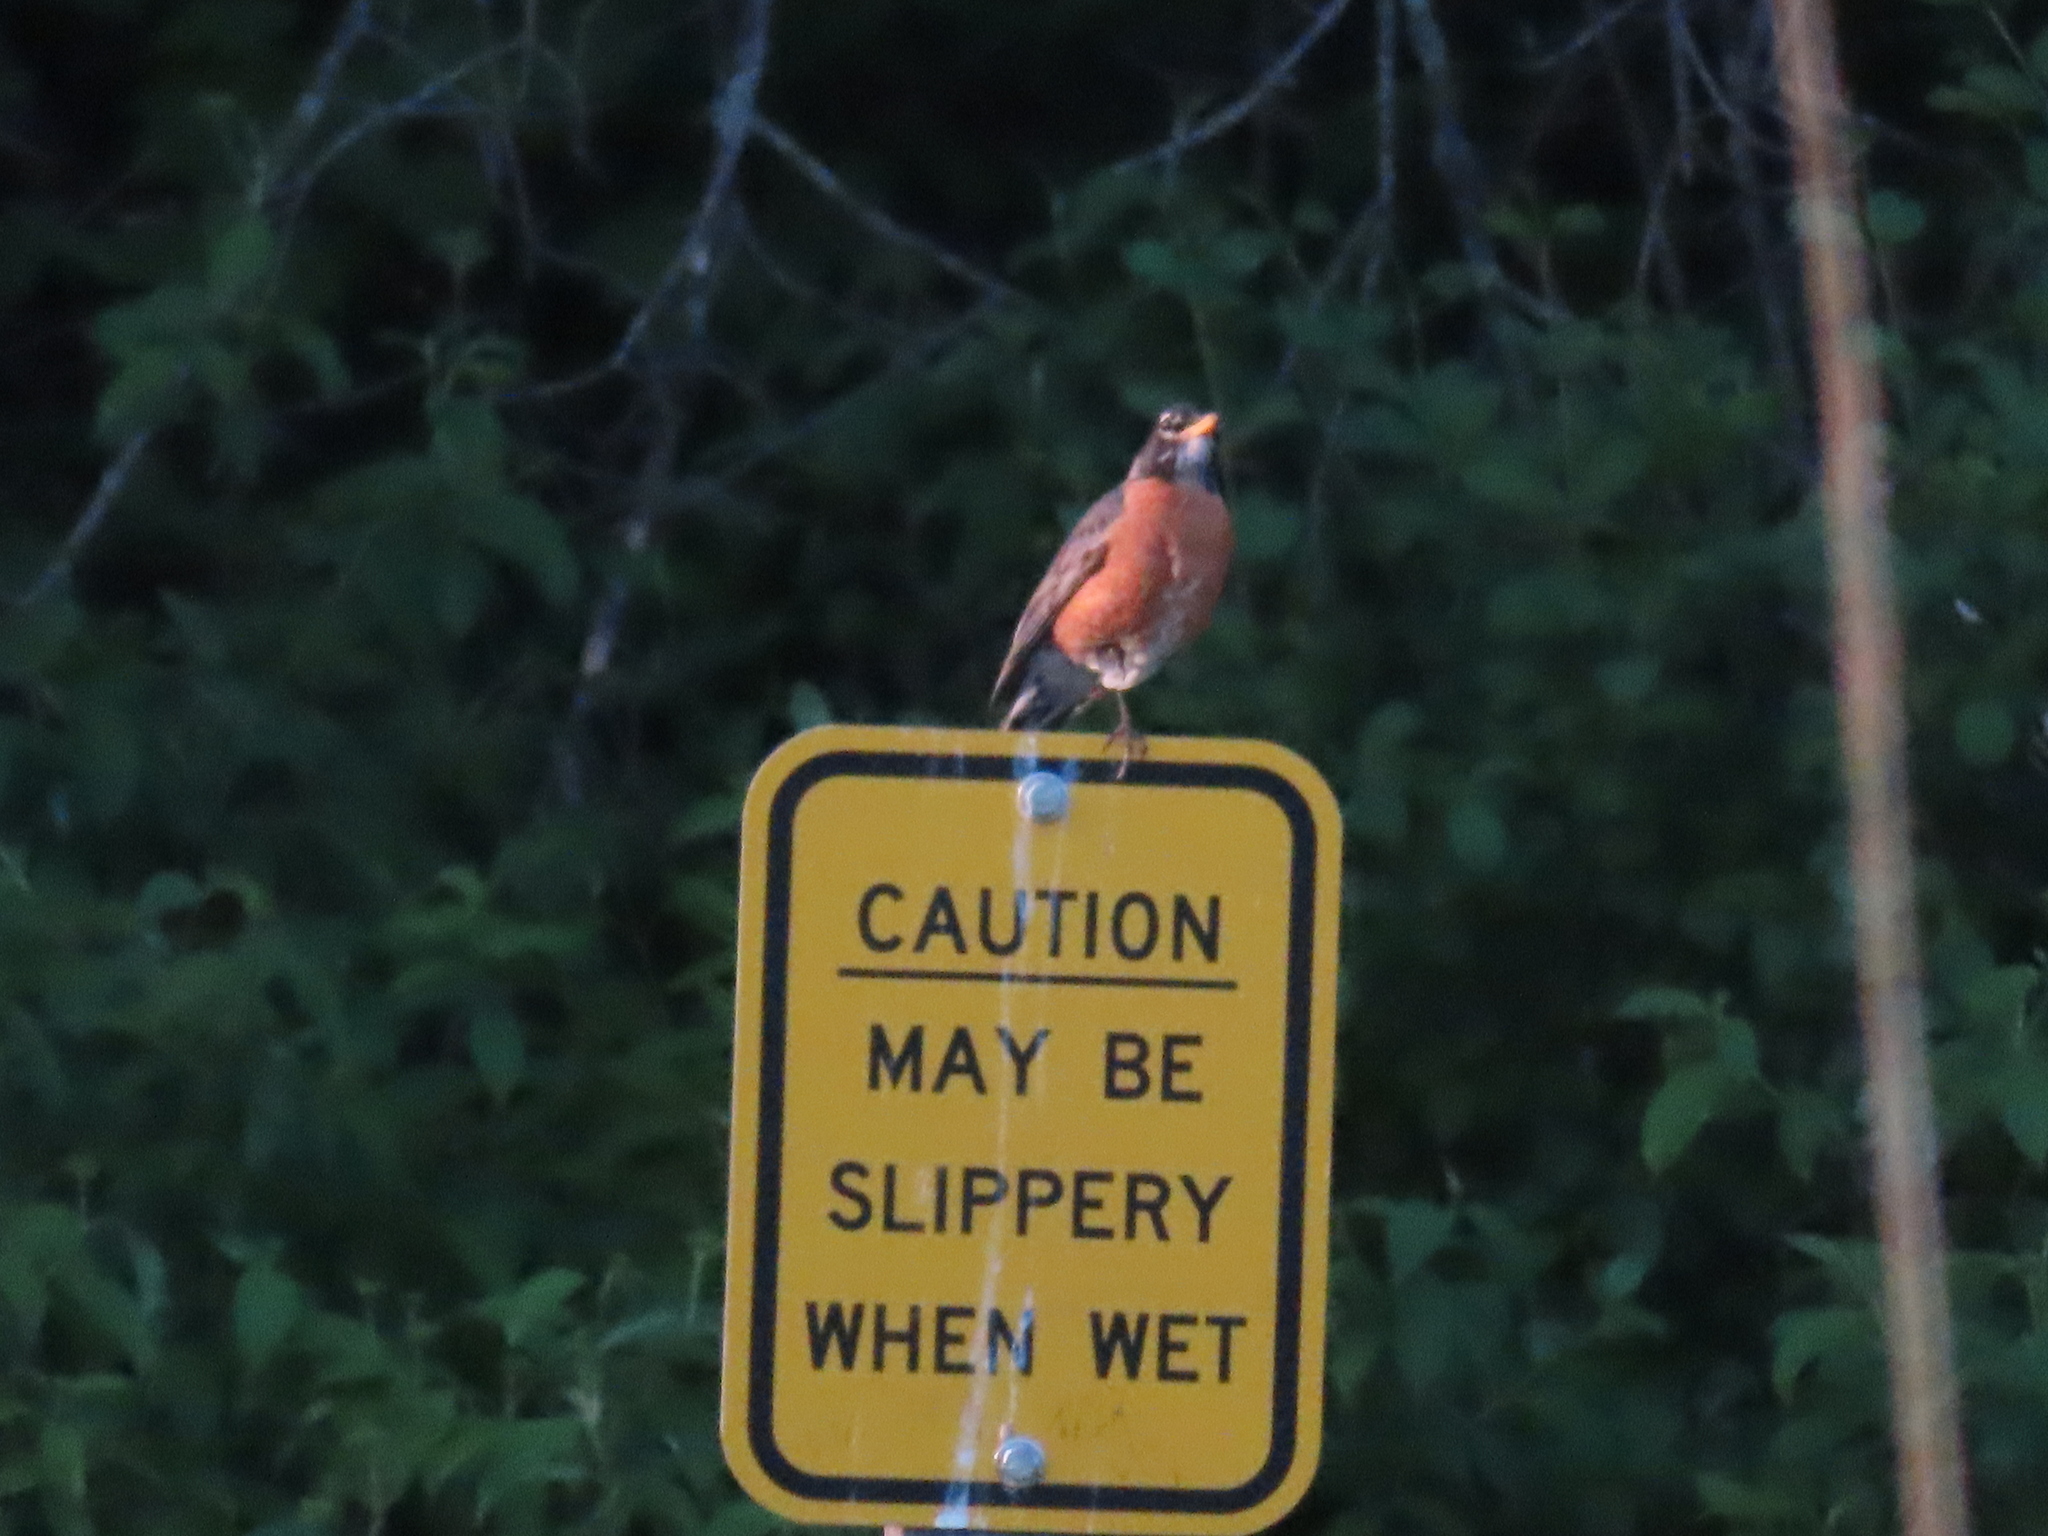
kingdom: Animalia
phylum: Chordata
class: Aves
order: Passeriformes
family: Turdidae
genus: Turdus
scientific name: Turdus migratorius
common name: American robin
